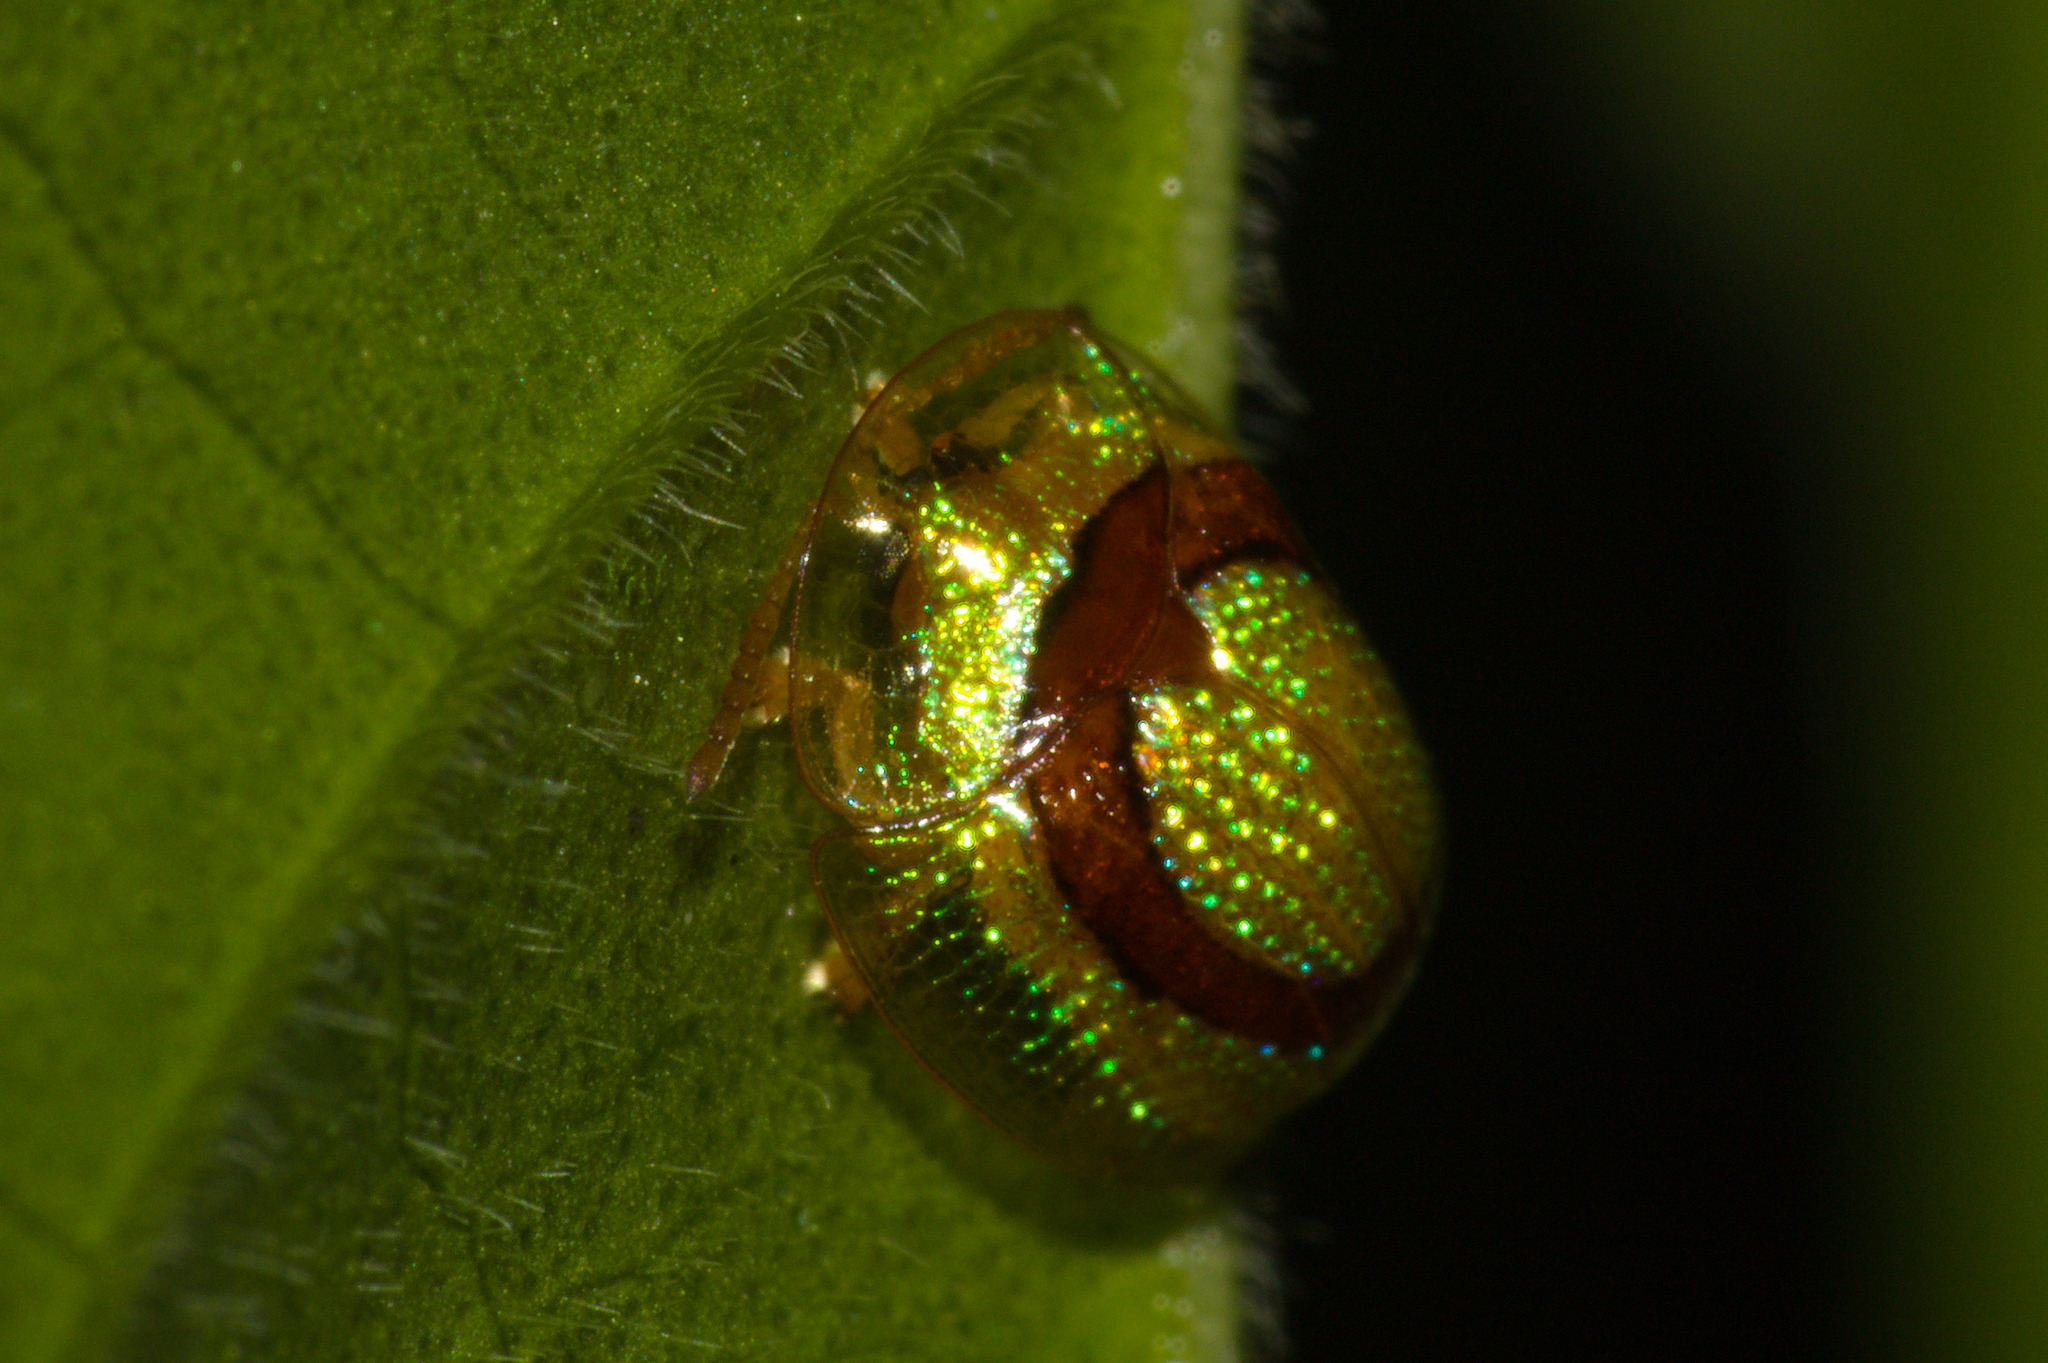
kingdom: Animalia
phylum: Arthropoda
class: Insecta
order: Coleoptera
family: Chrysomelidae
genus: Charidotis
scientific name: Charidotis abrupta
